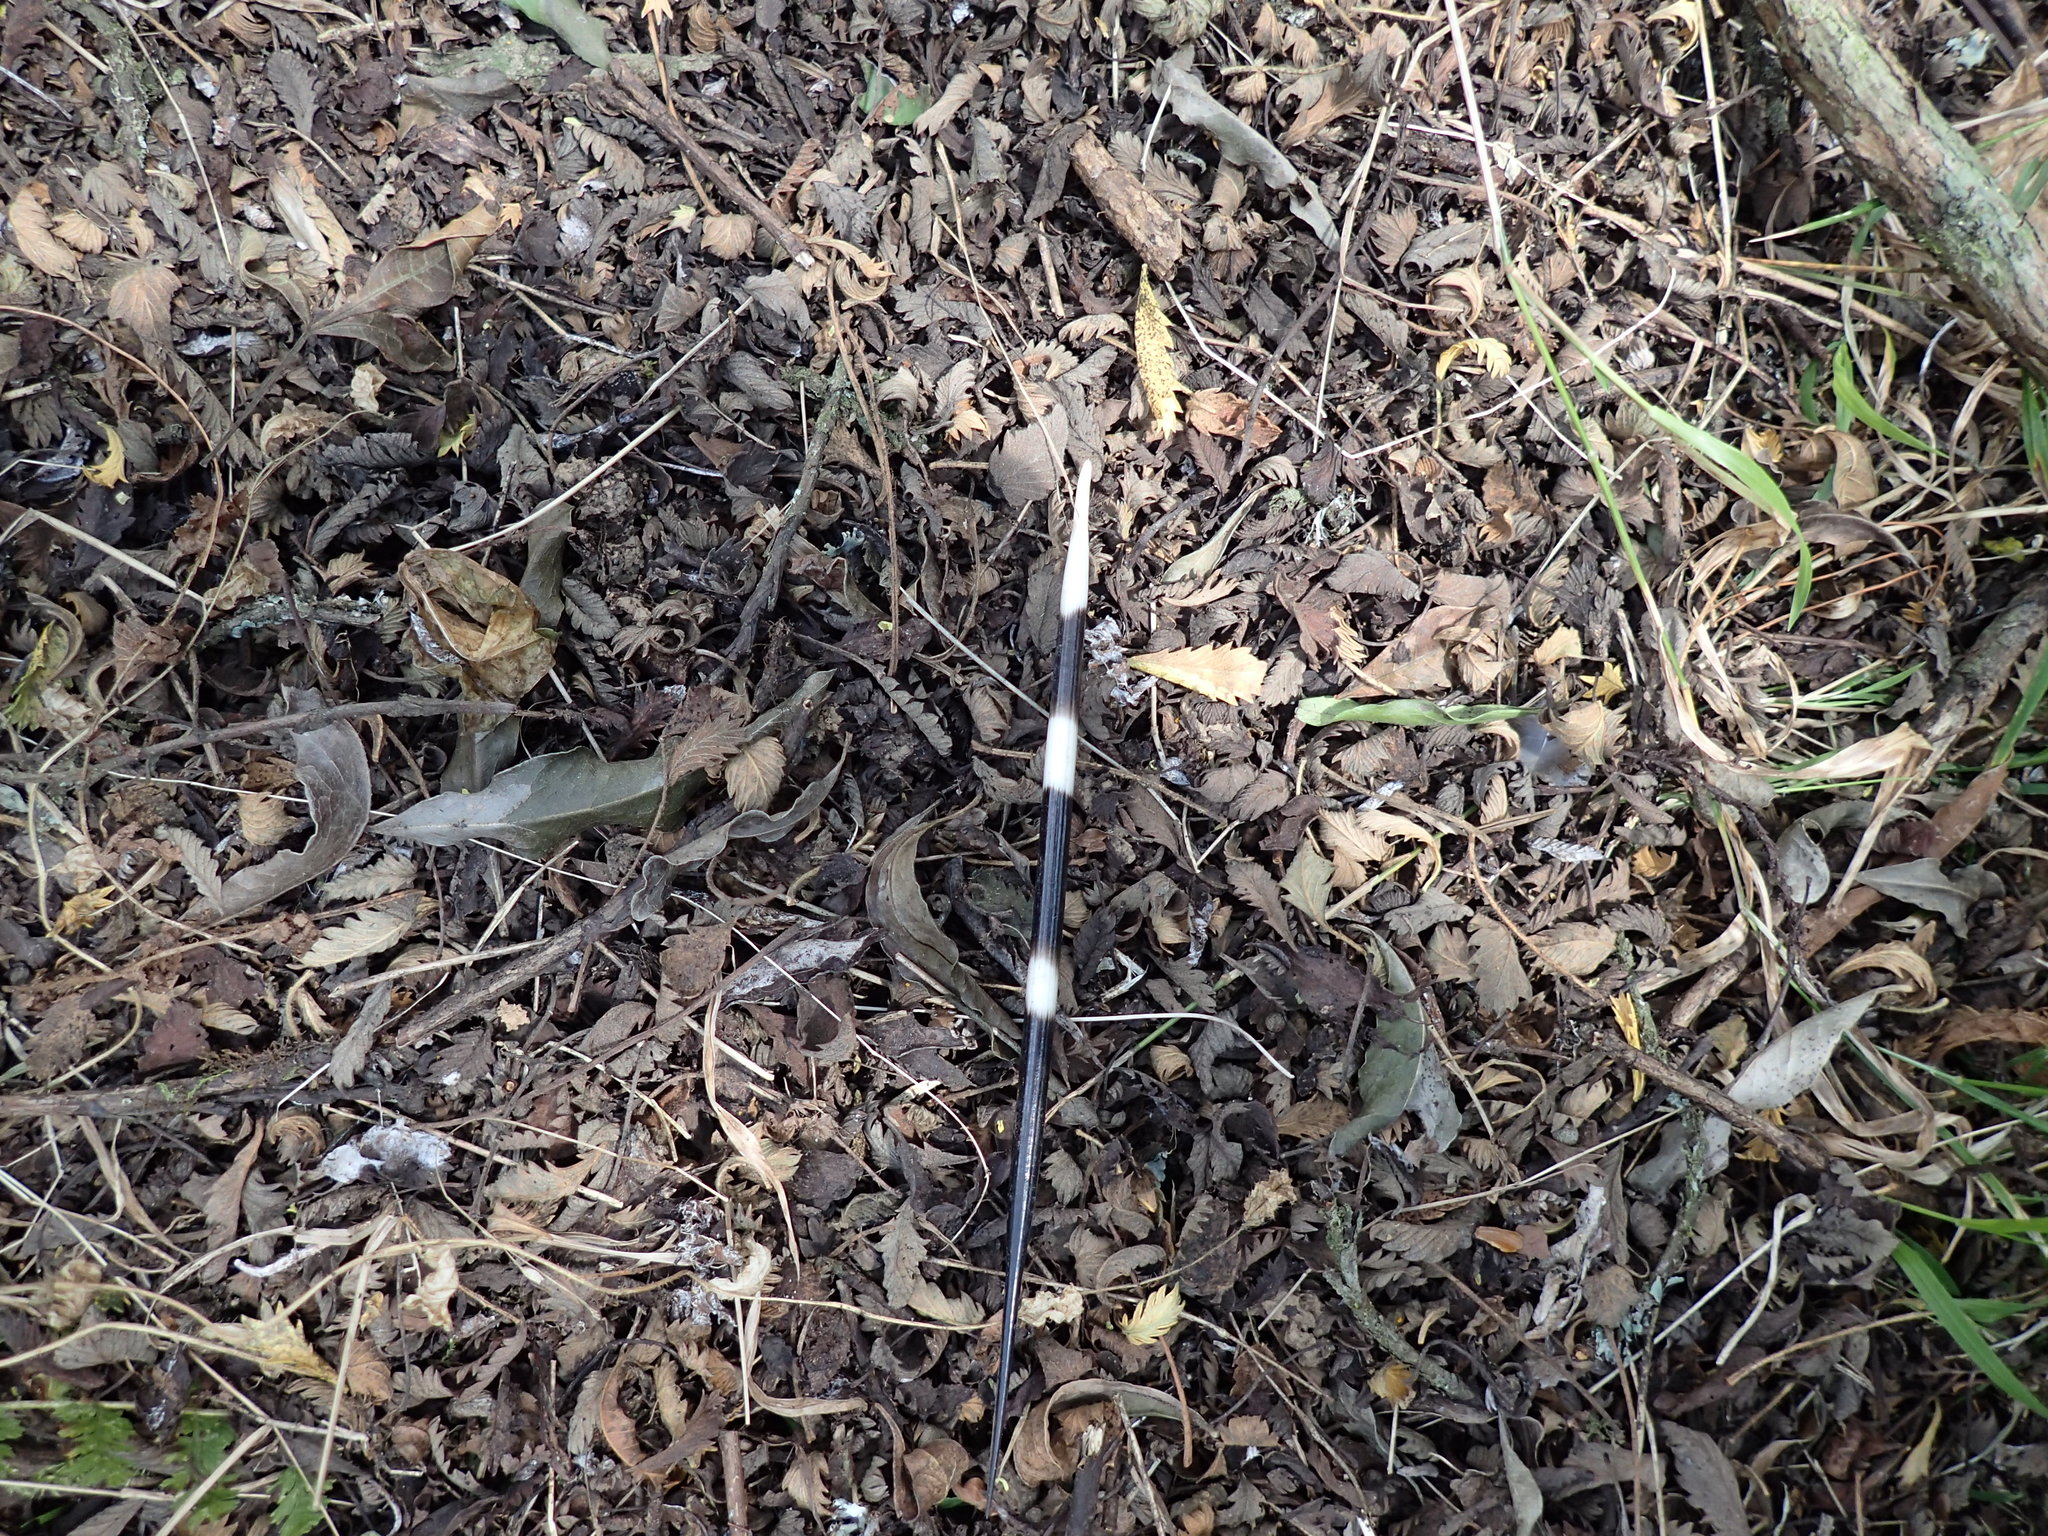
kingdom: Animalia
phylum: Chordata
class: Mammalia
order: Rodentia
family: Hystricidae
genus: Hystrix
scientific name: Hystrix africaeaustralis
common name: Cape porcupine
